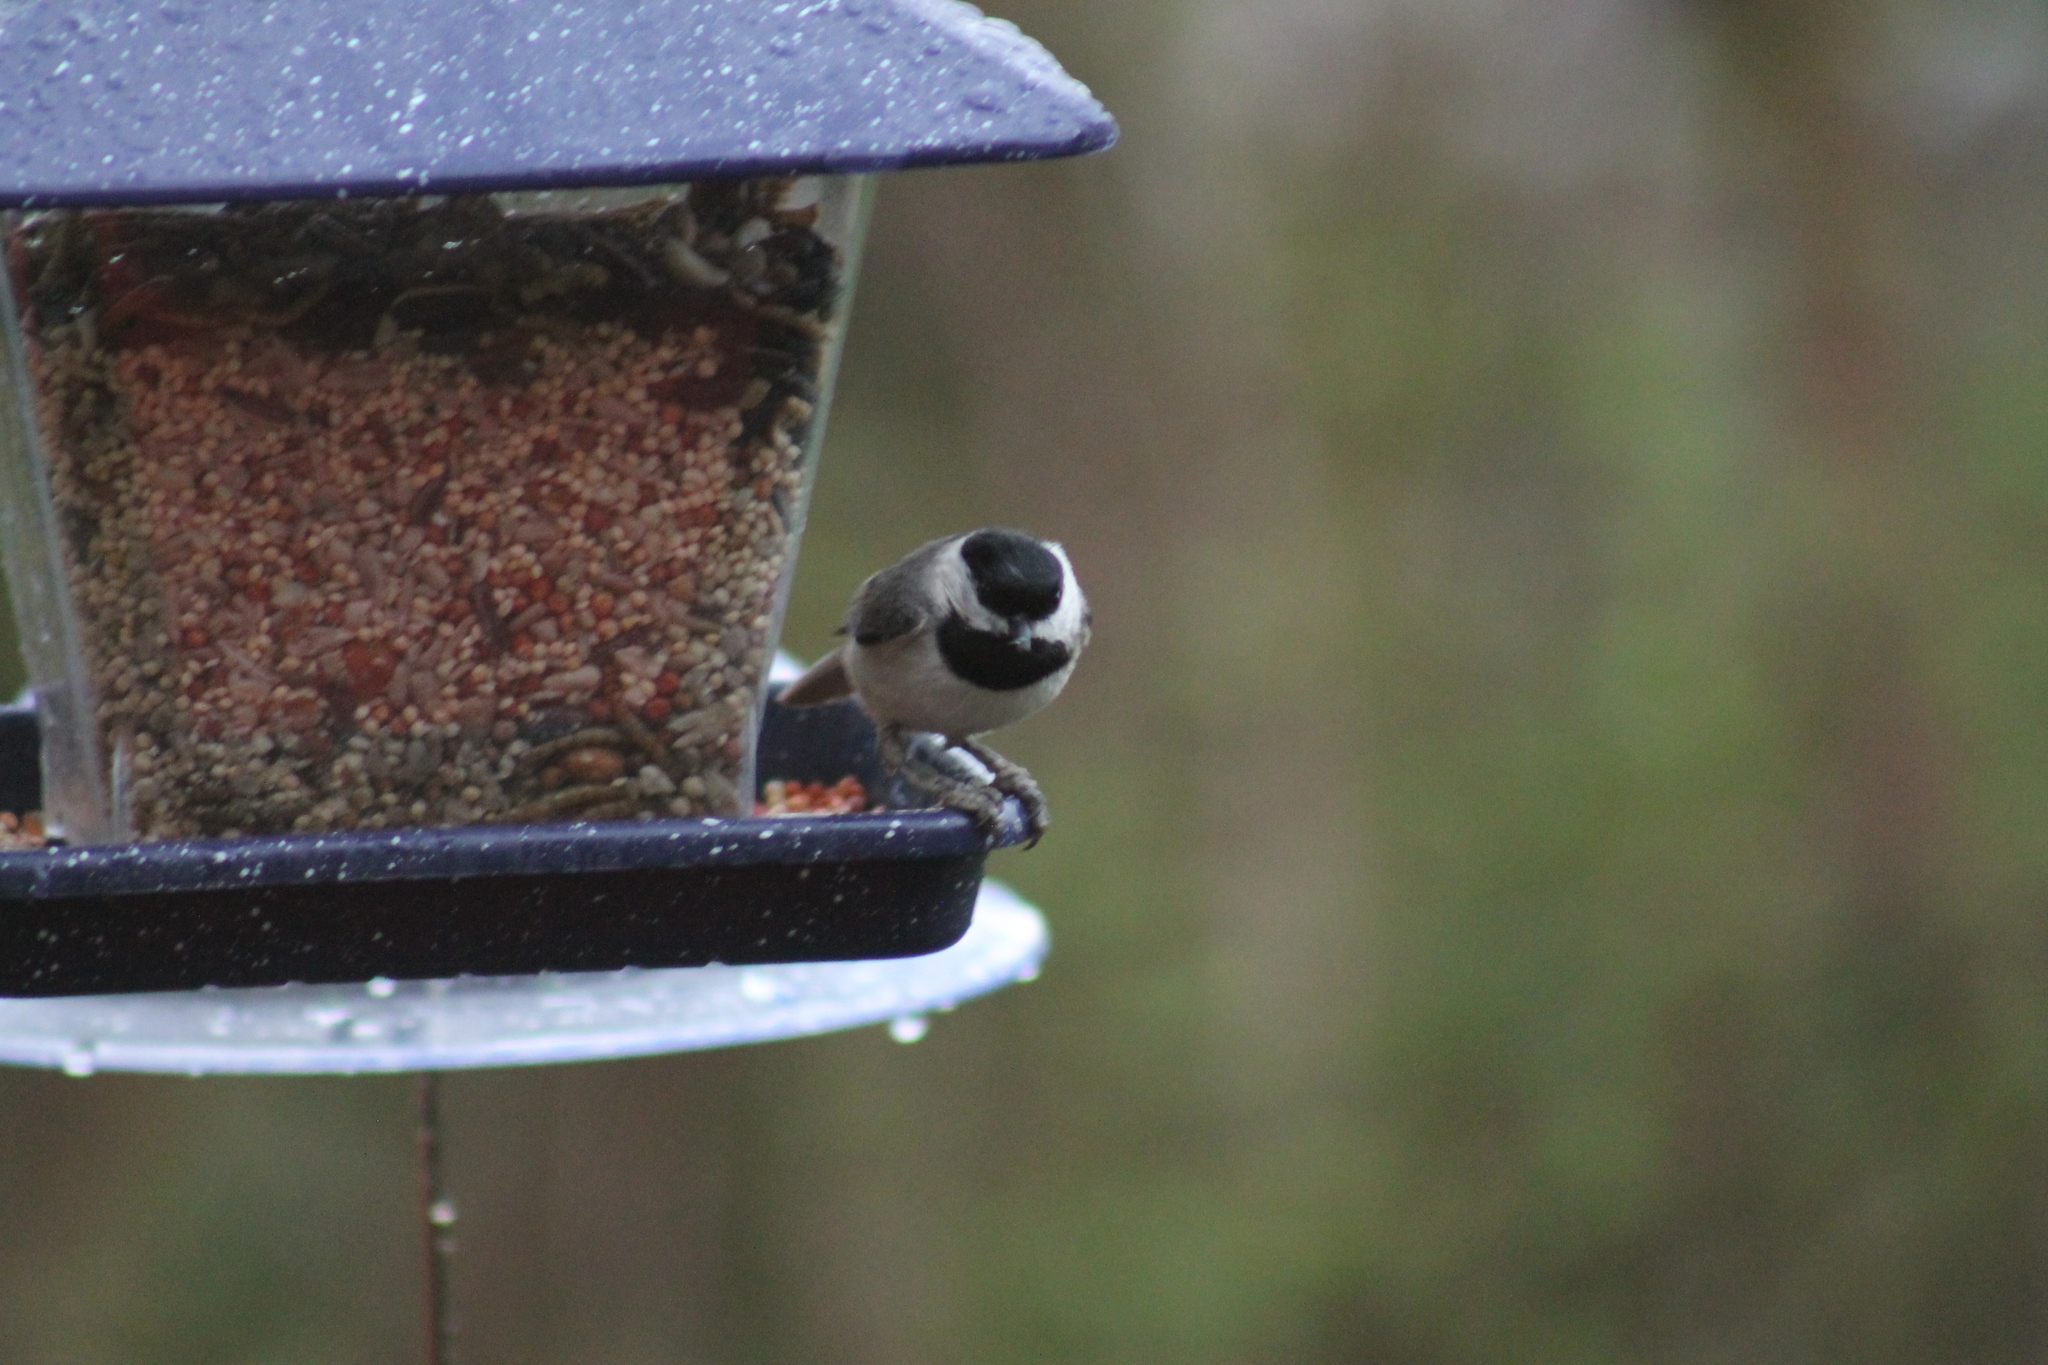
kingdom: Animalia
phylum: Chordata
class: Aves
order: Passeriformes
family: Paridae
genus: Poecile
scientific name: Poecile carolinensis
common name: Carolina chickadee
